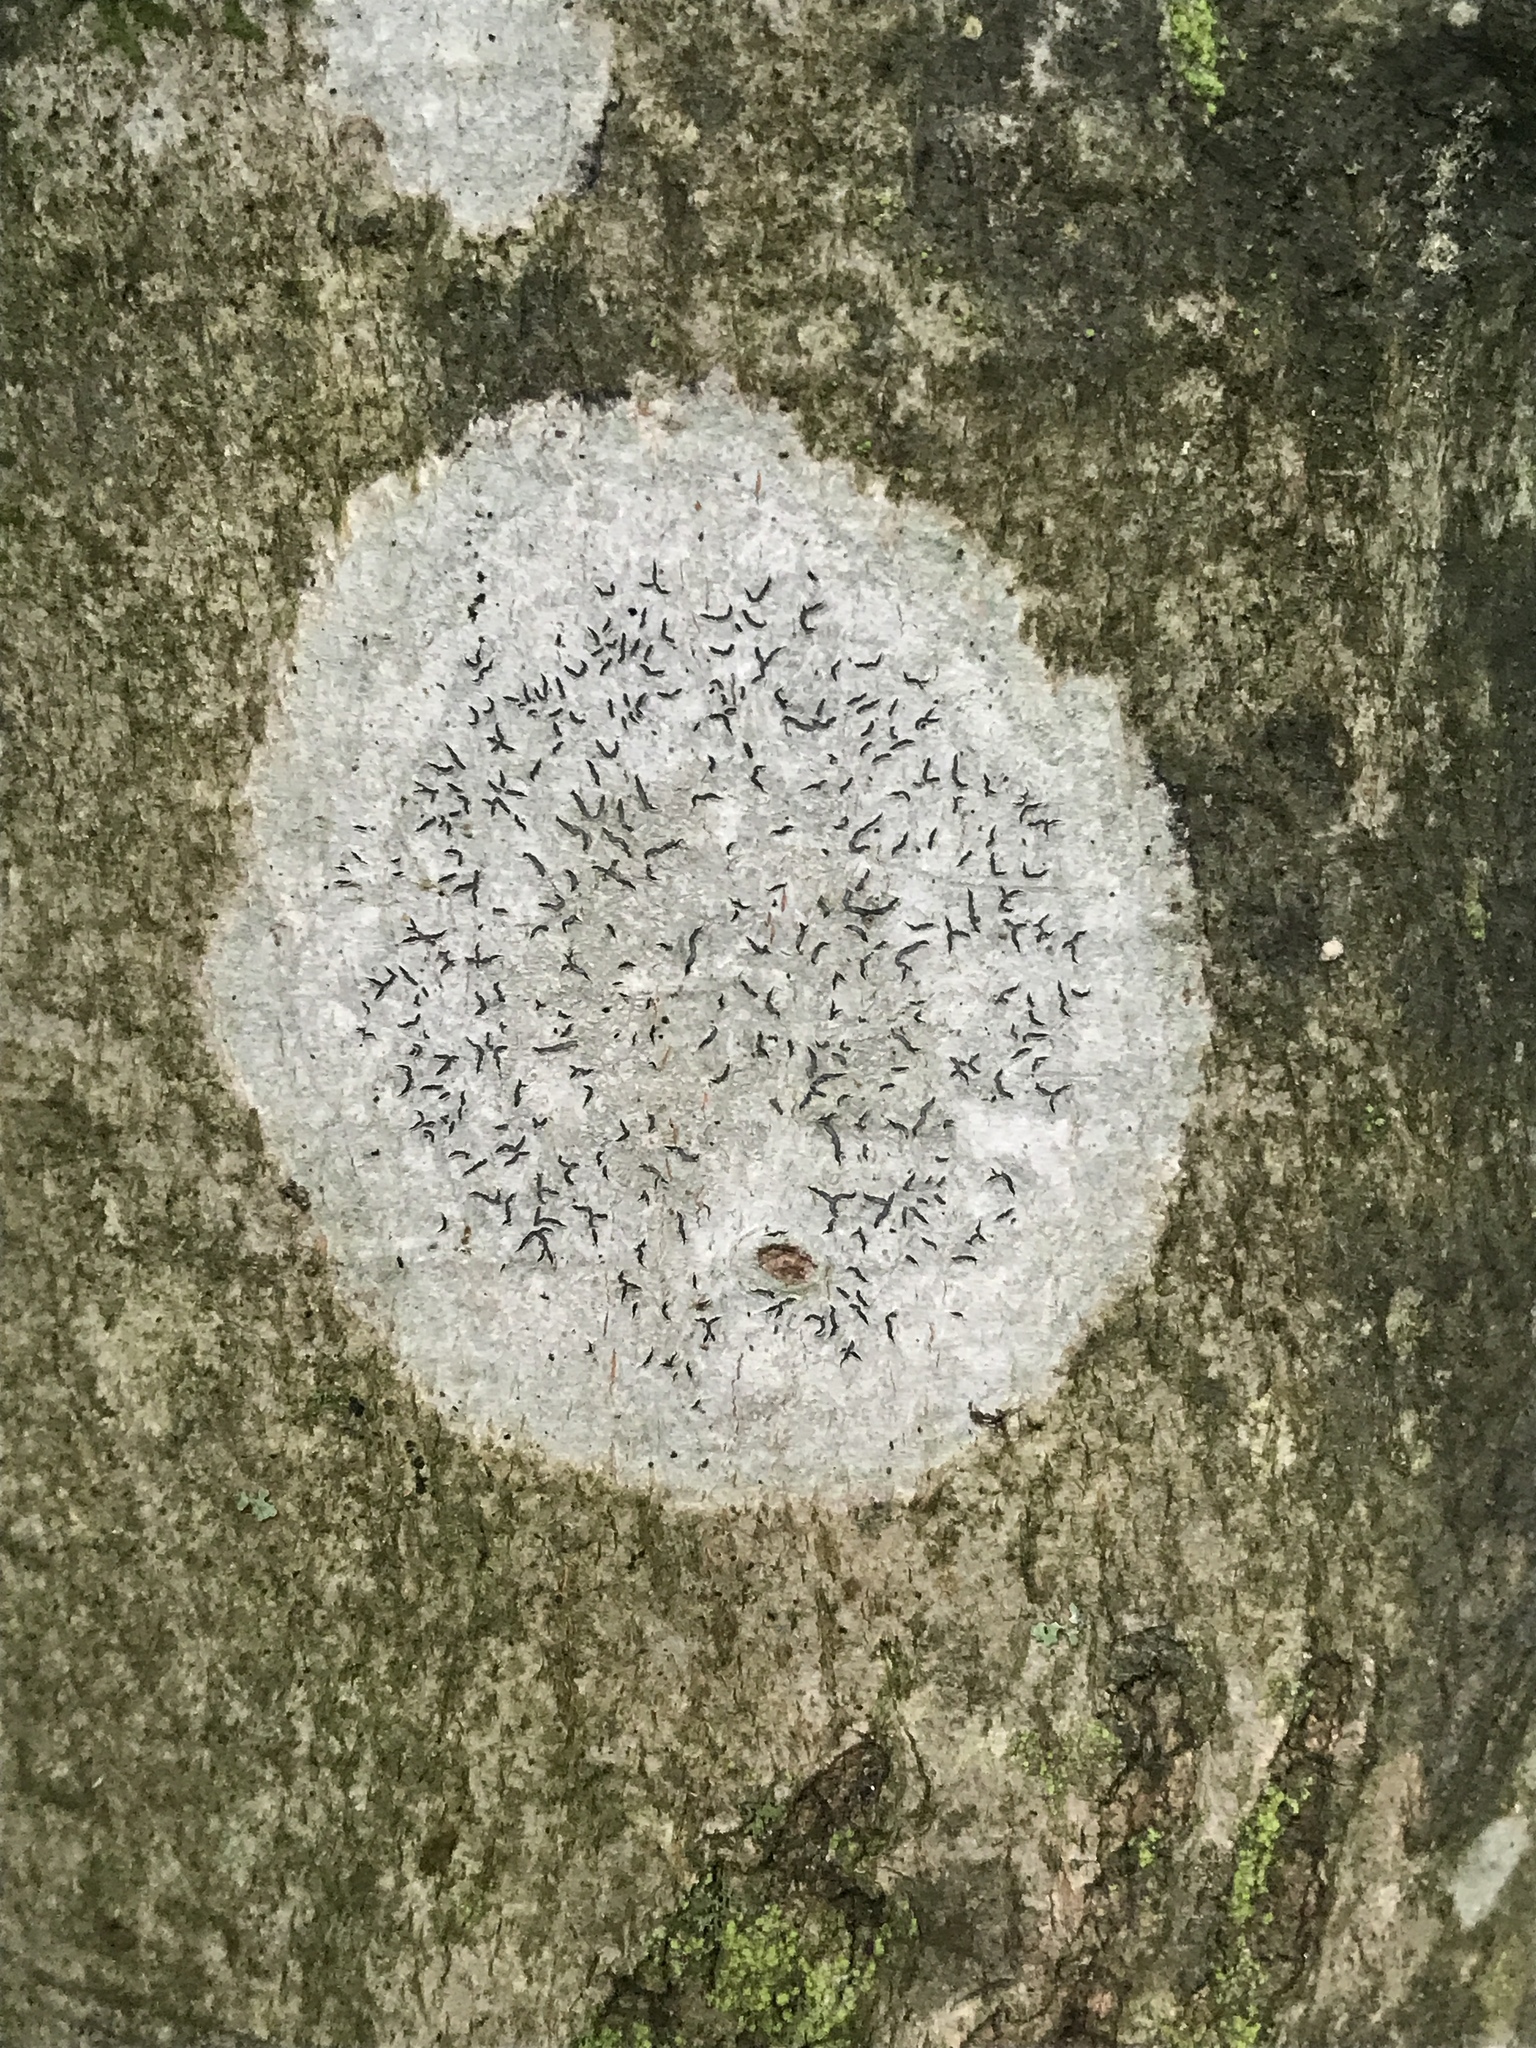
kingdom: Fungi
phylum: Ascomycota
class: Lecanoromycetes
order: Ostropales
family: Graphidaceae
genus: Graphis
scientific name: Graphis scripta
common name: Script lichen
